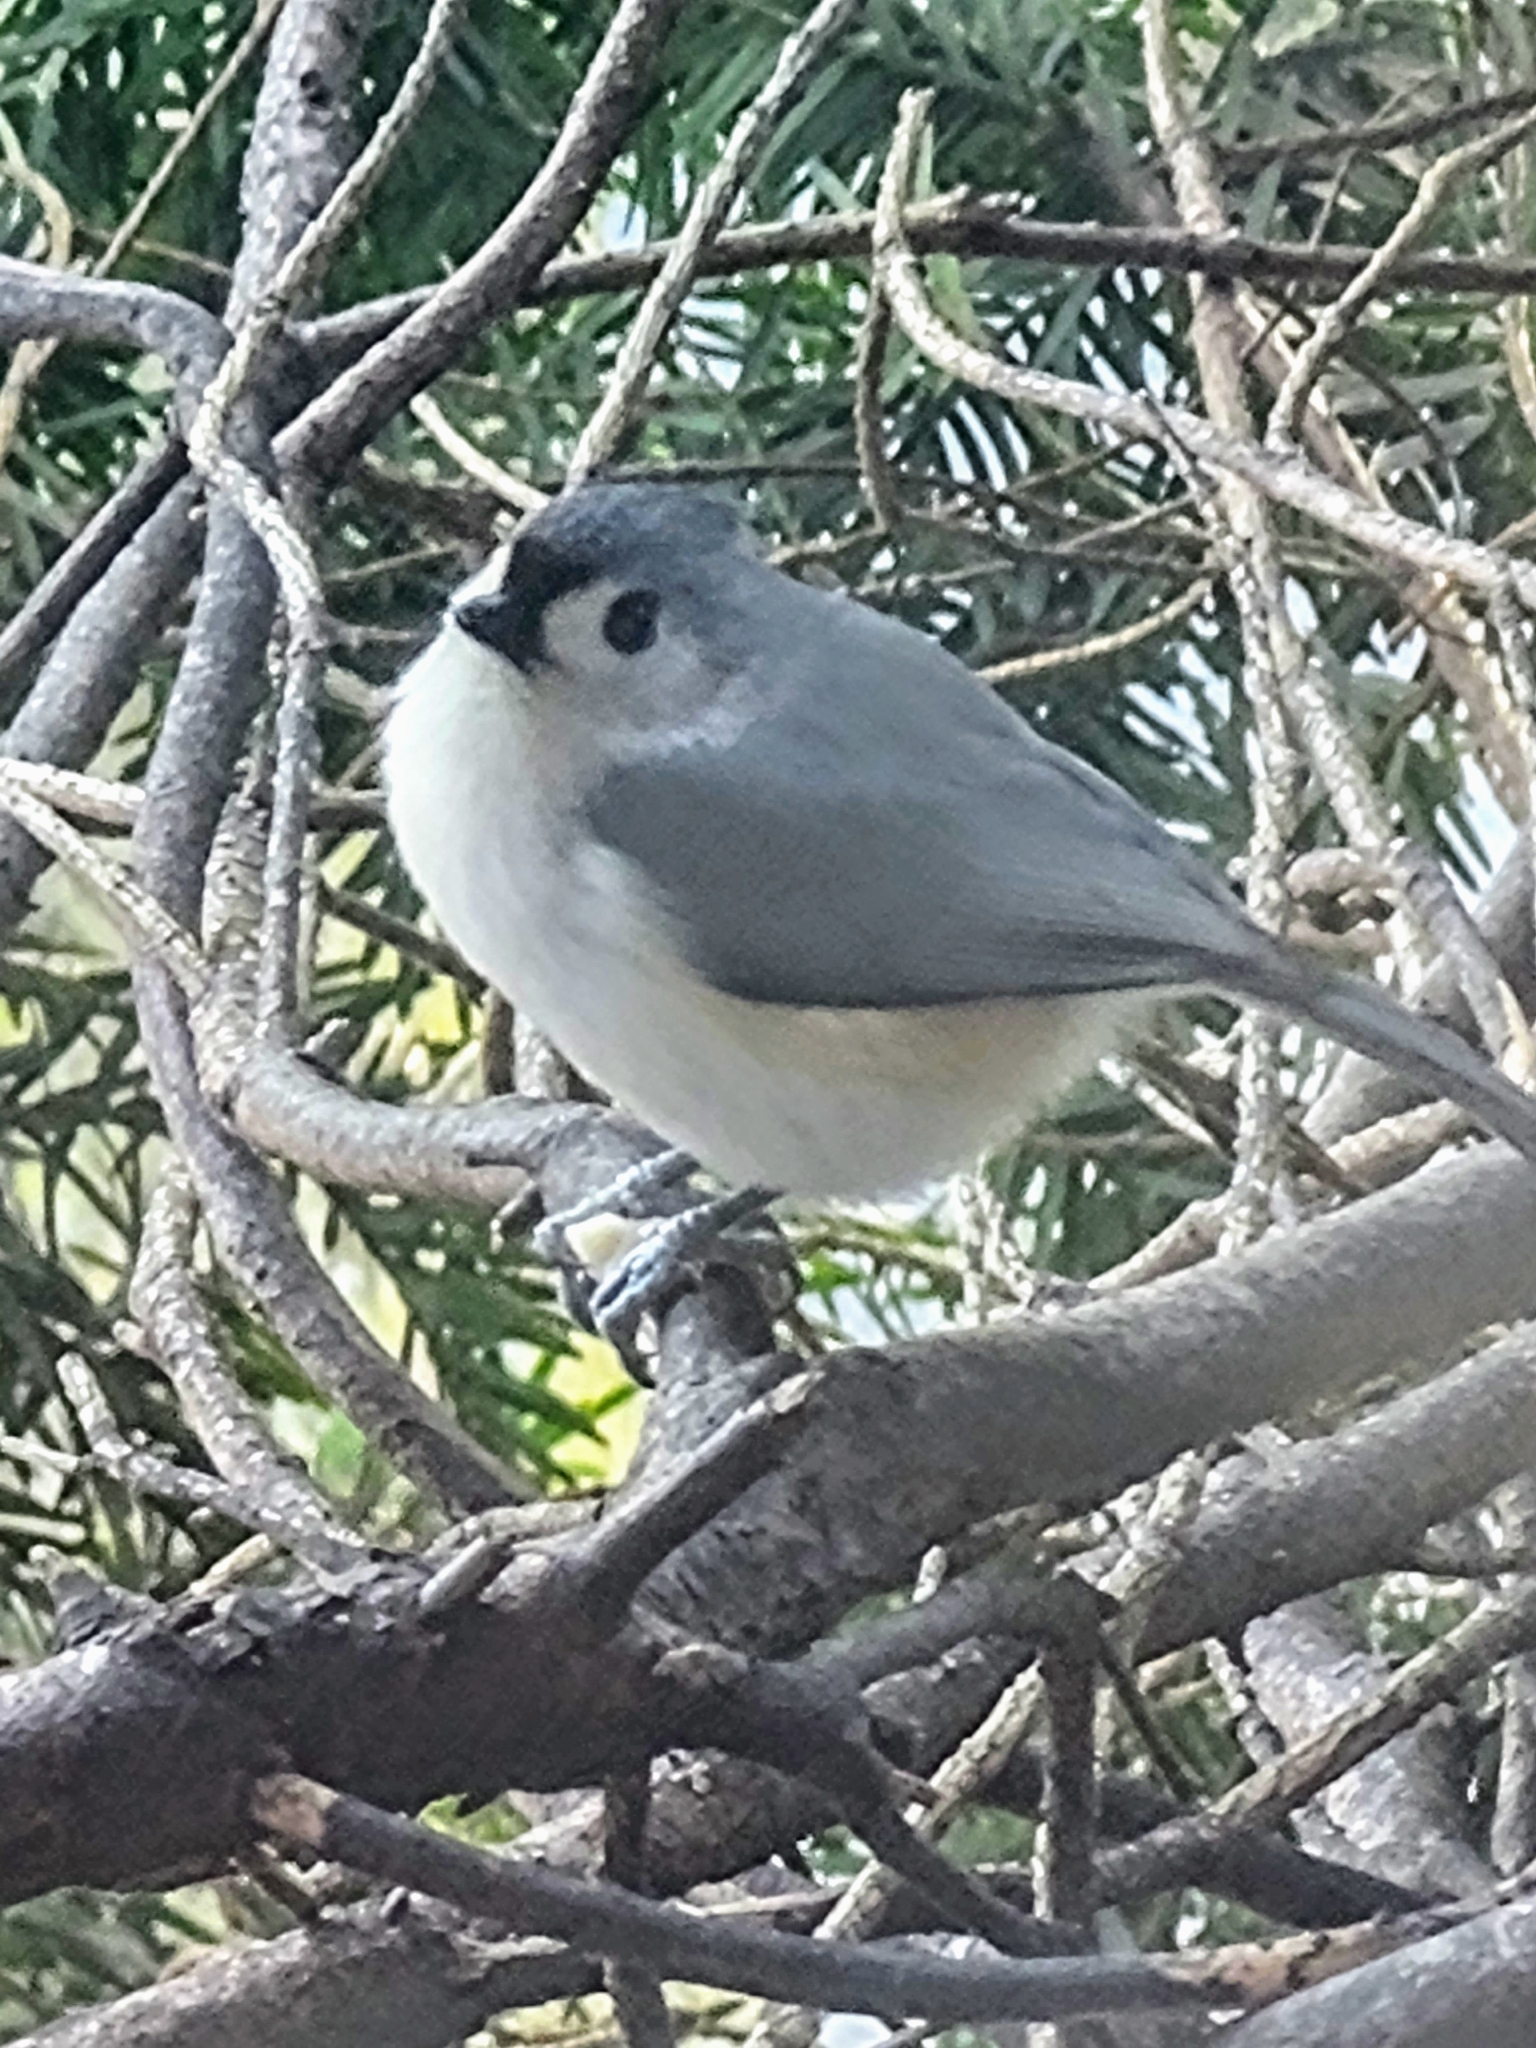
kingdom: Animalia
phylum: Chordata
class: Aves
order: Passeriformes
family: Paridae
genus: Baeolophus
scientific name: Baeolophus bicolor
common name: Tufted titmouse
